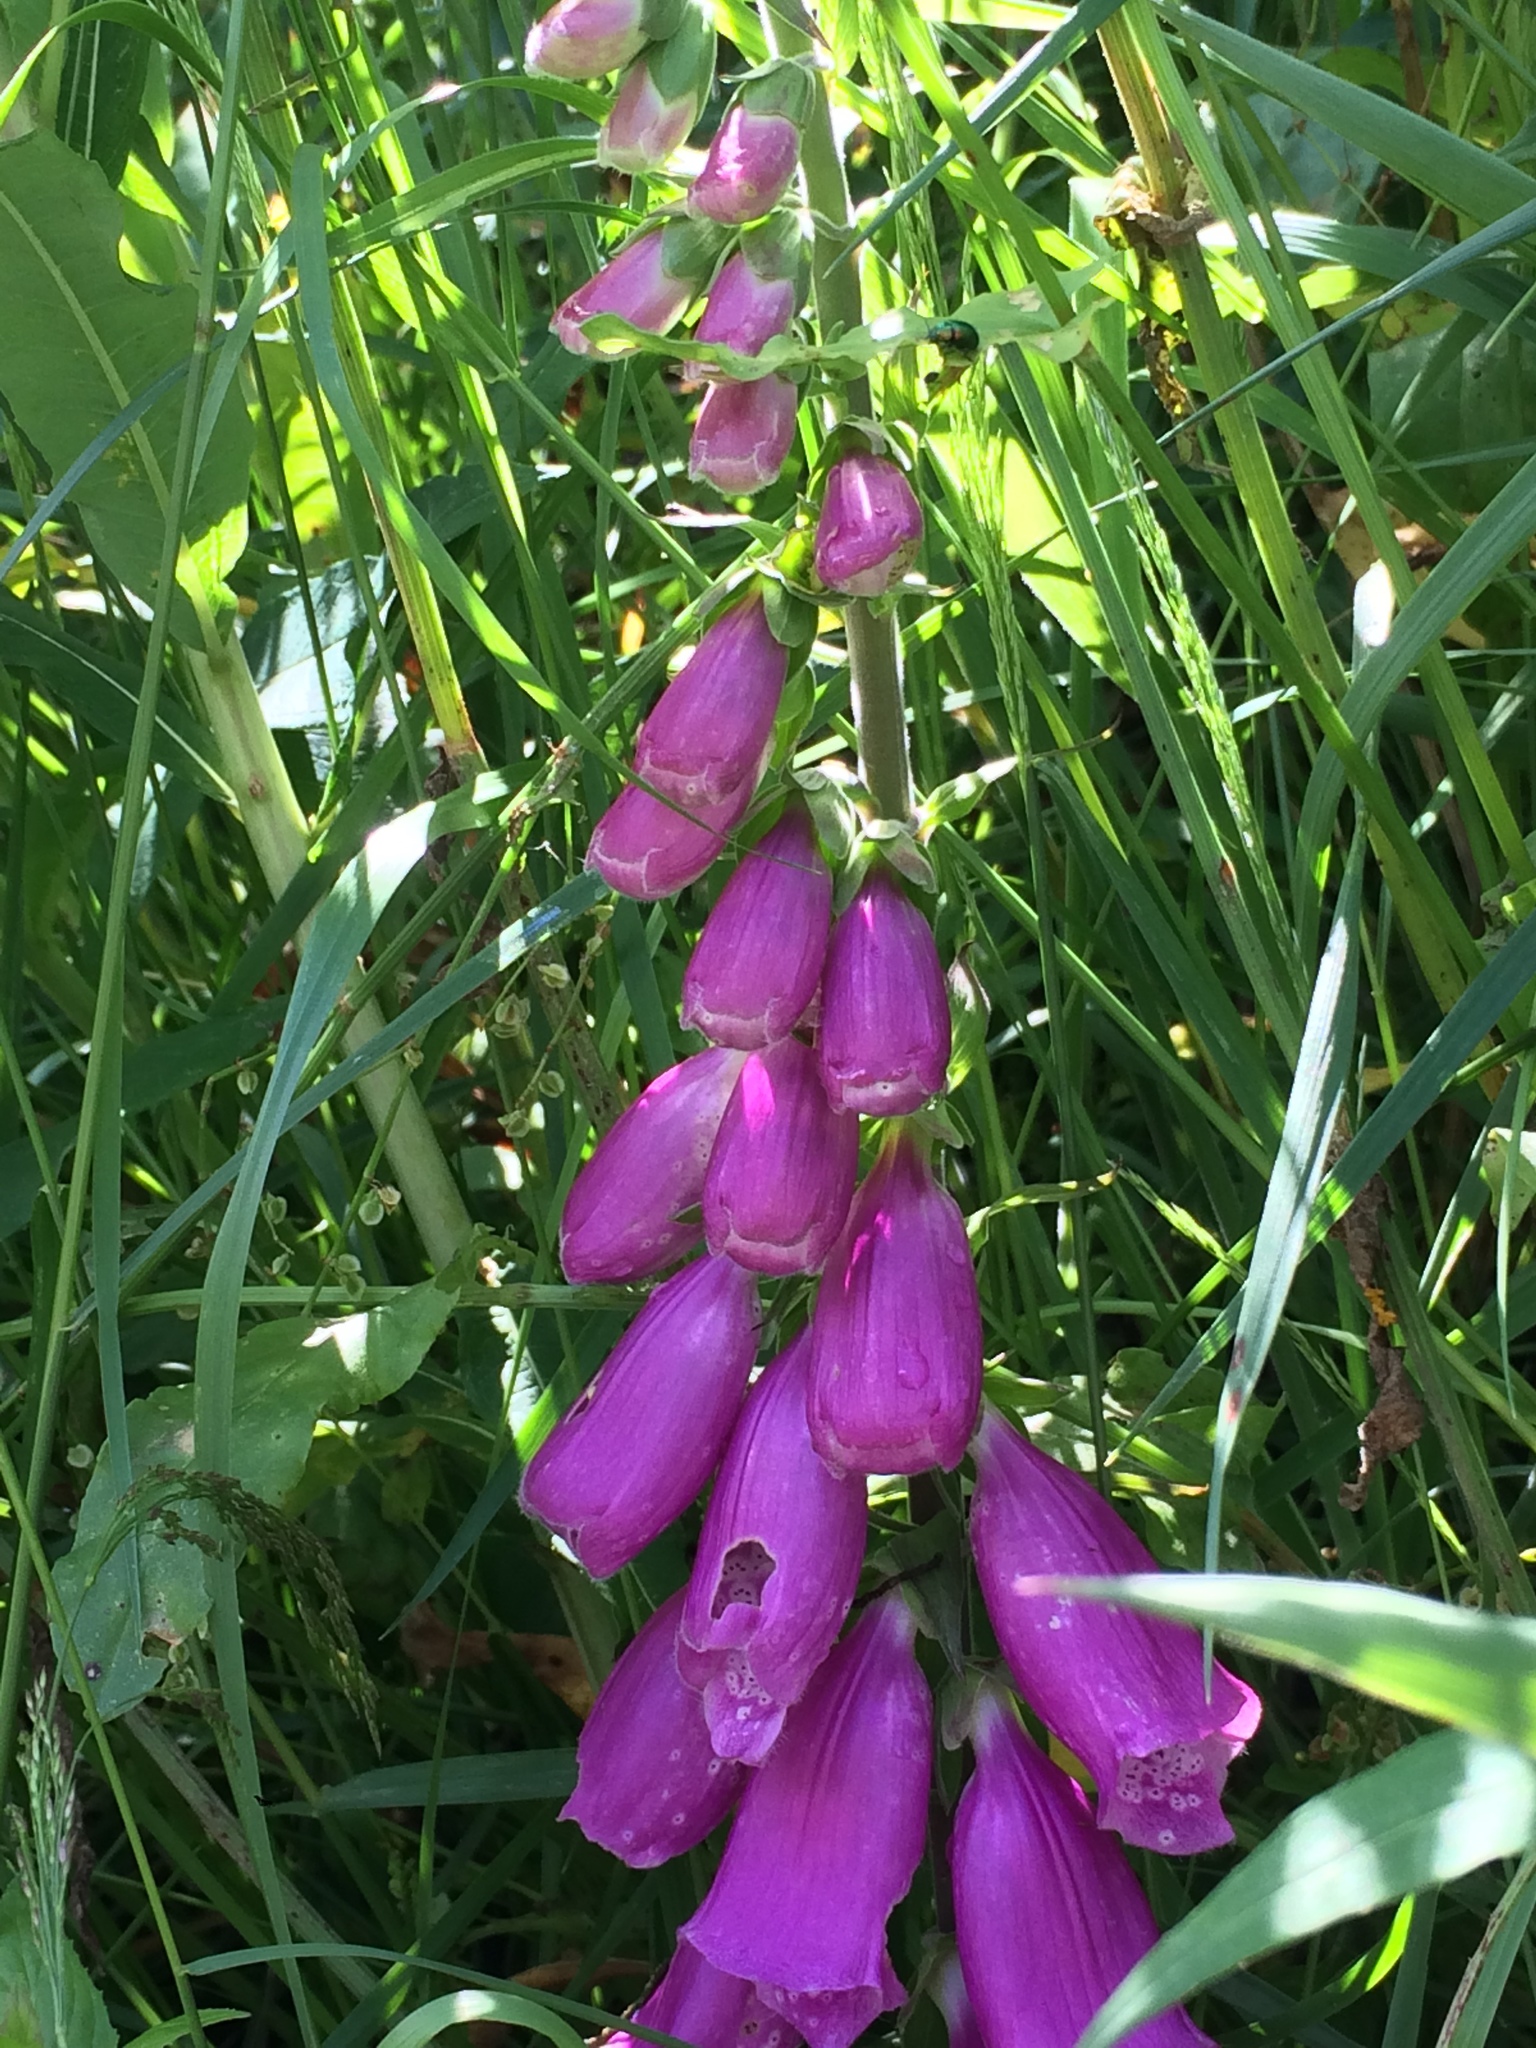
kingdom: Plantae
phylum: Tracheophyta
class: Magnoliopsida
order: Lamiales
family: Plantaginaceae
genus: Digitalis
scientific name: Digitalis purpurea
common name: Foxglove
